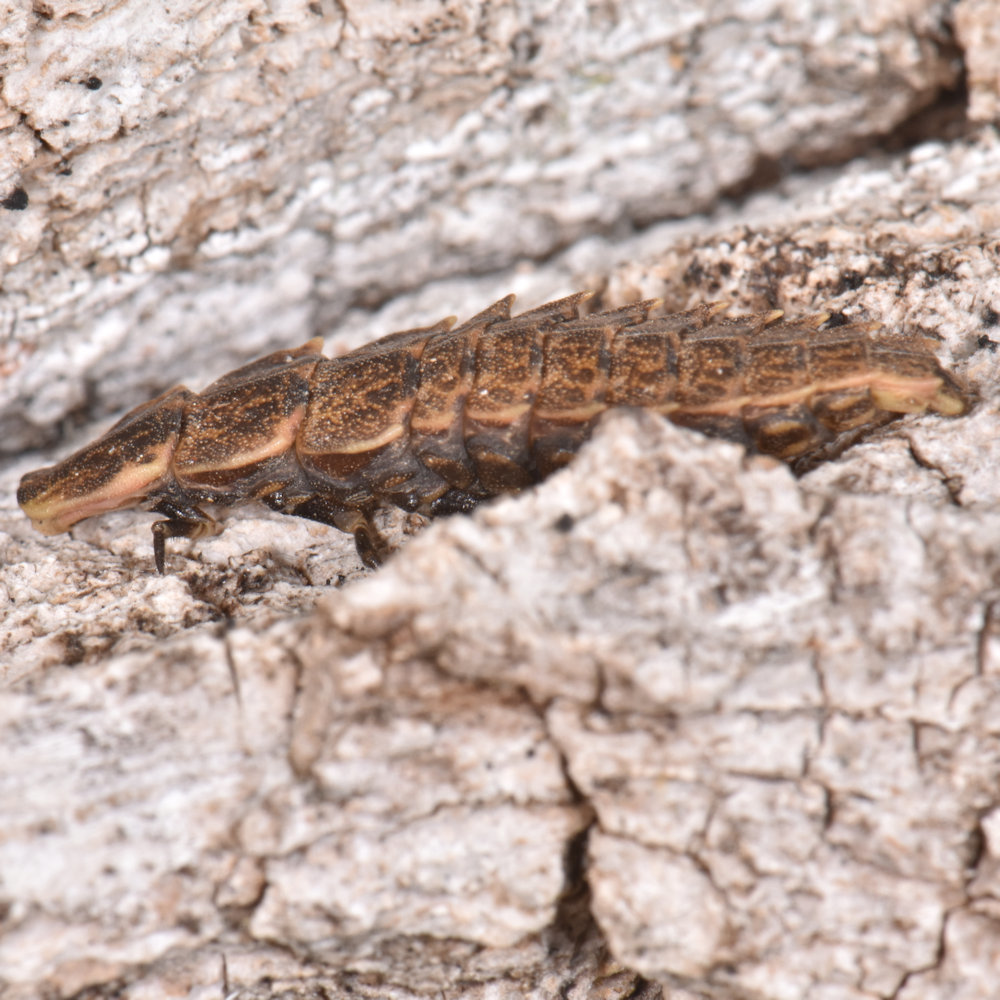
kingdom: Animalia
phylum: Arthropoda
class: Insecta
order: Coleoptera
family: Lampyridae
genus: Pyractomena
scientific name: Pyractomena borealis
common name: Northern firefly
